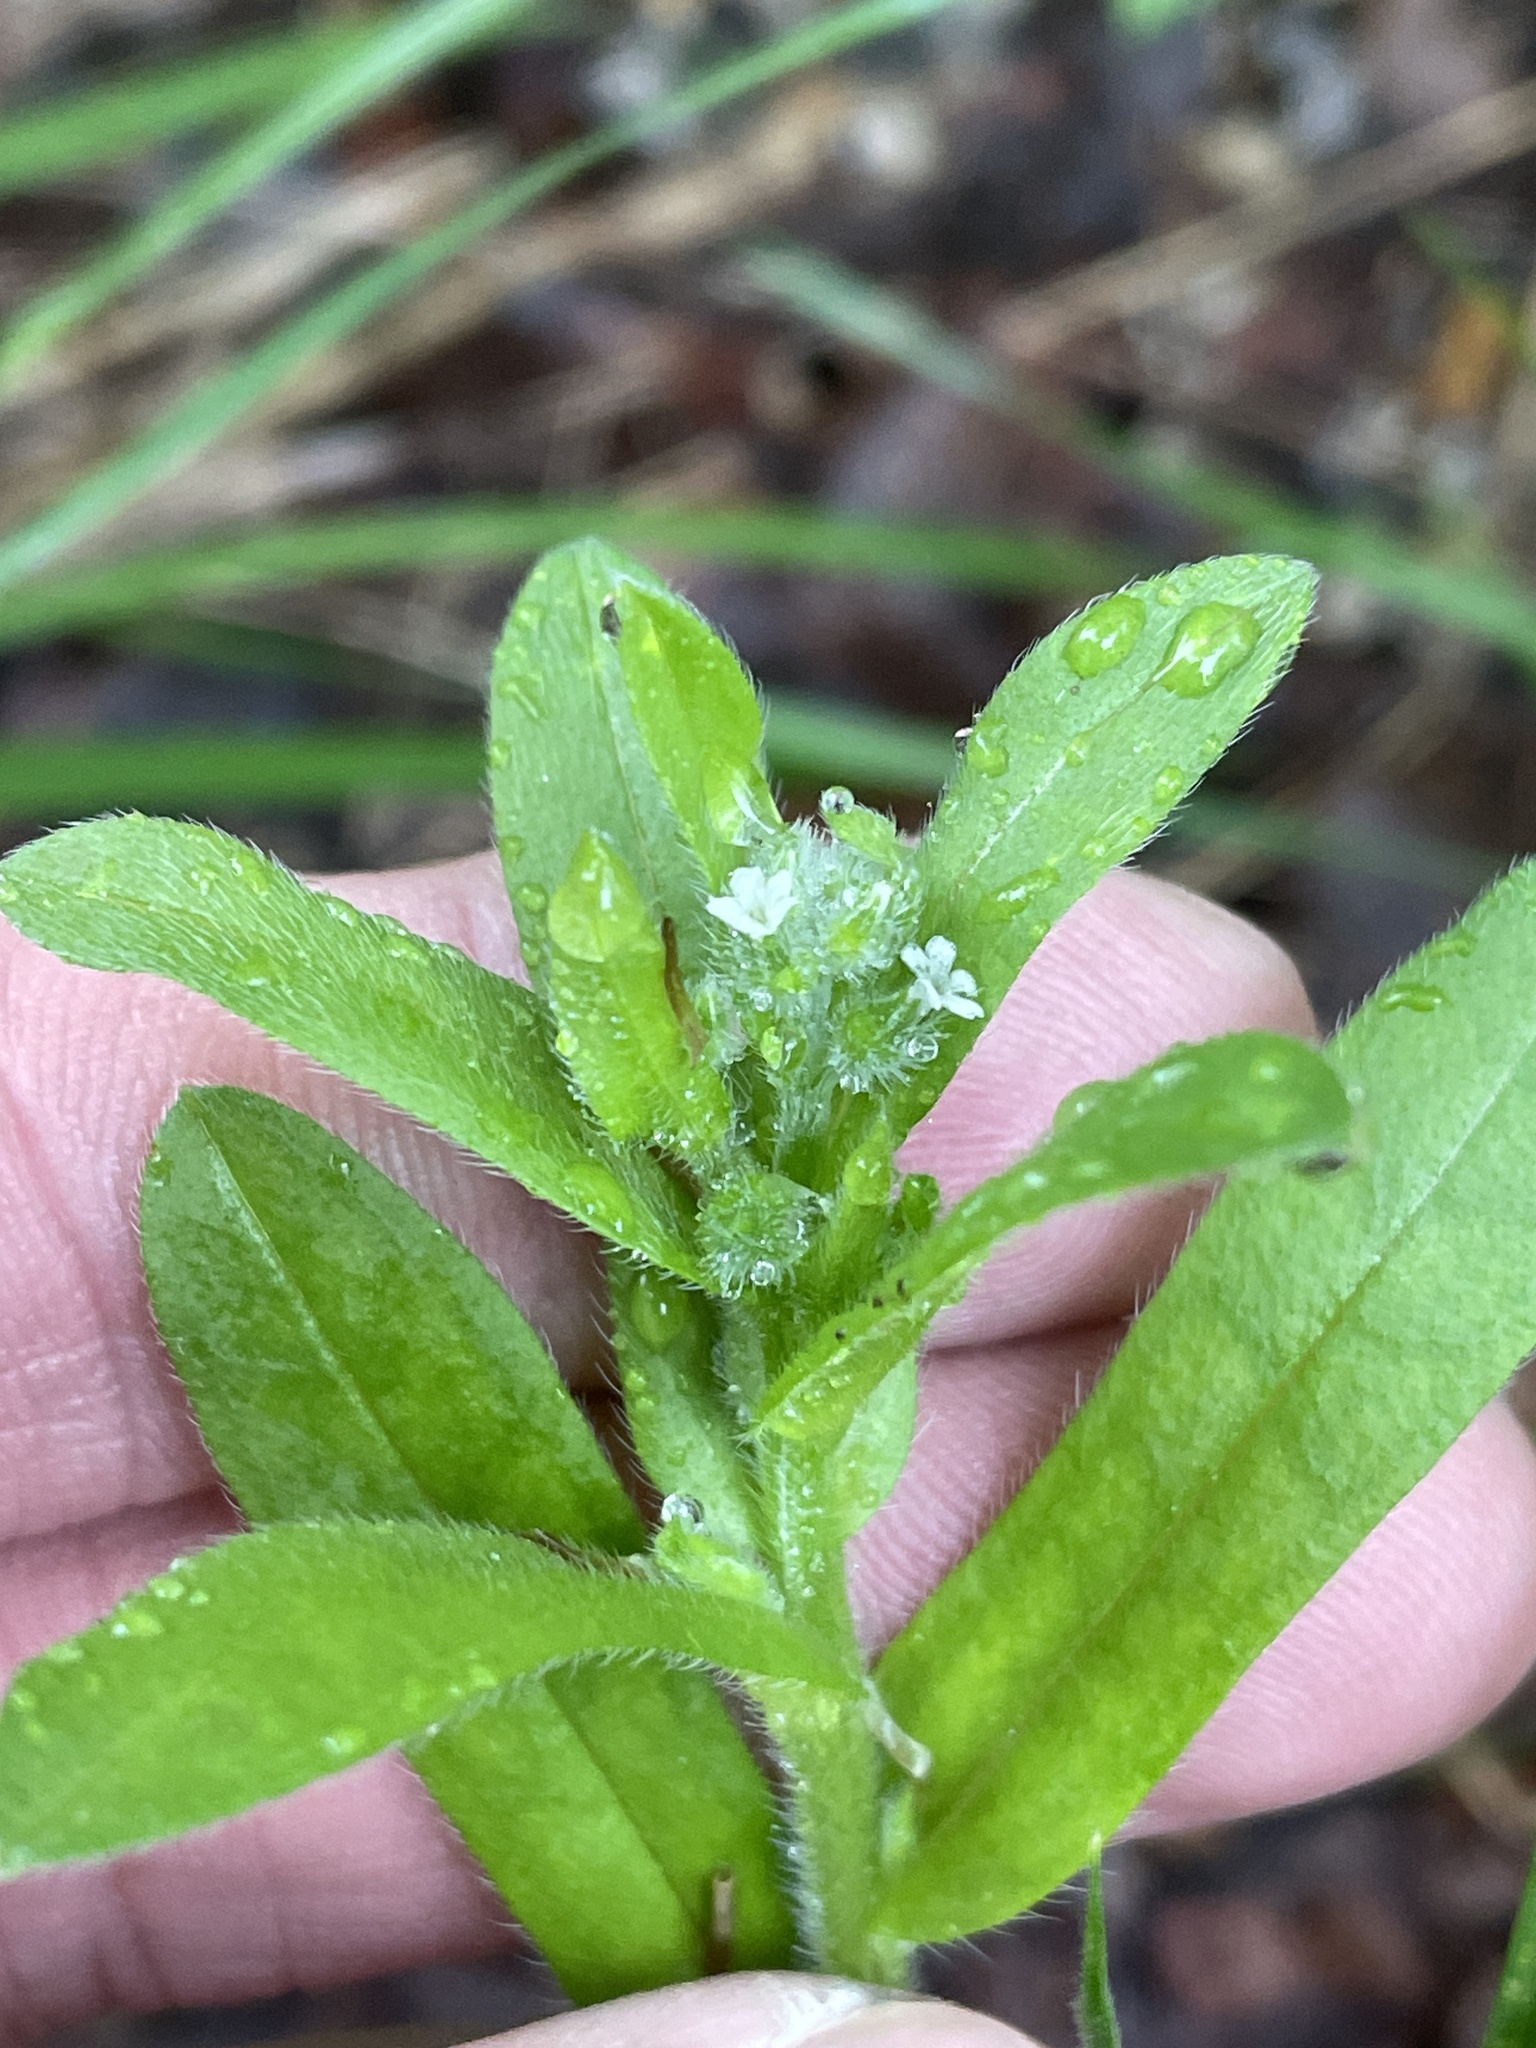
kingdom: Plantae
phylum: Tracheophyta
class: Magnoliopsida
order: Boraginales
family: Boraginaceae
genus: Myosotis
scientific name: Myosotis macrosperma
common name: Large-seed forget-me-not
